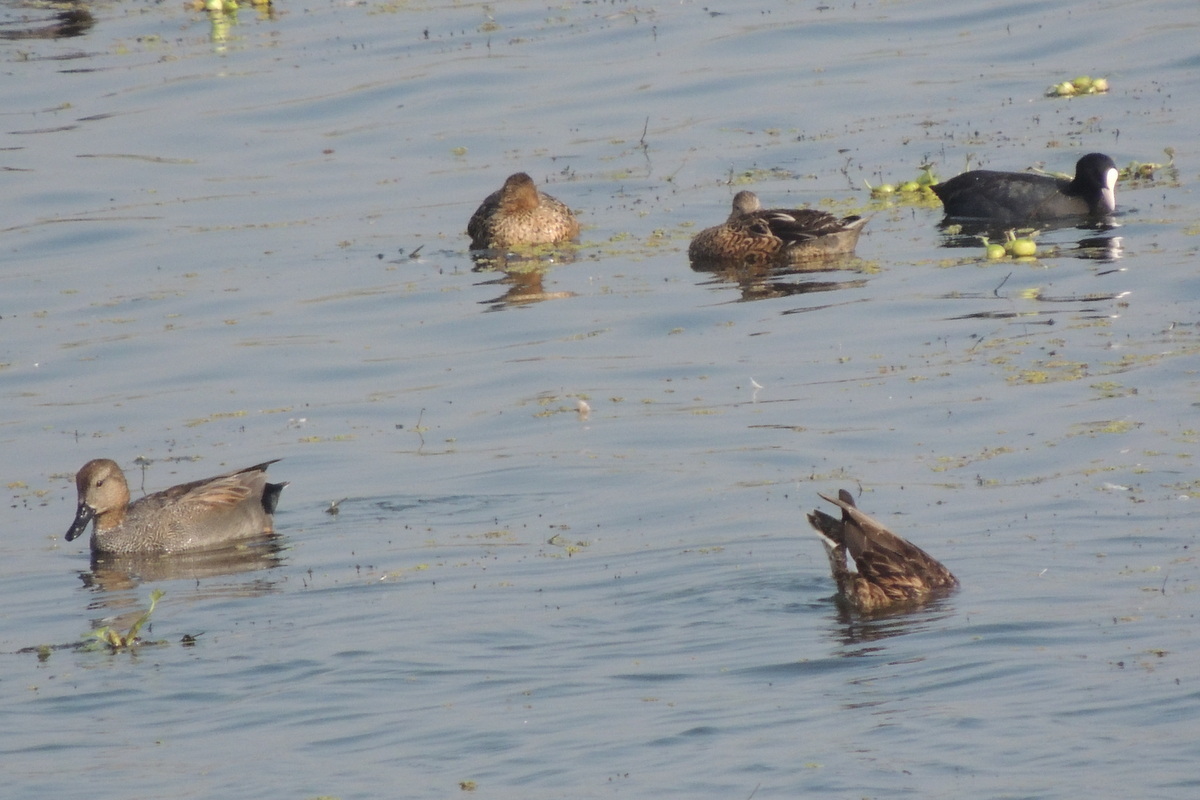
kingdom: Animalia
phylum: Chordata
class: Aves
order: Anseriformes
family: Anatidae
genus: Anas
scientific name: Anas crecca
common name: Eurasian teal
